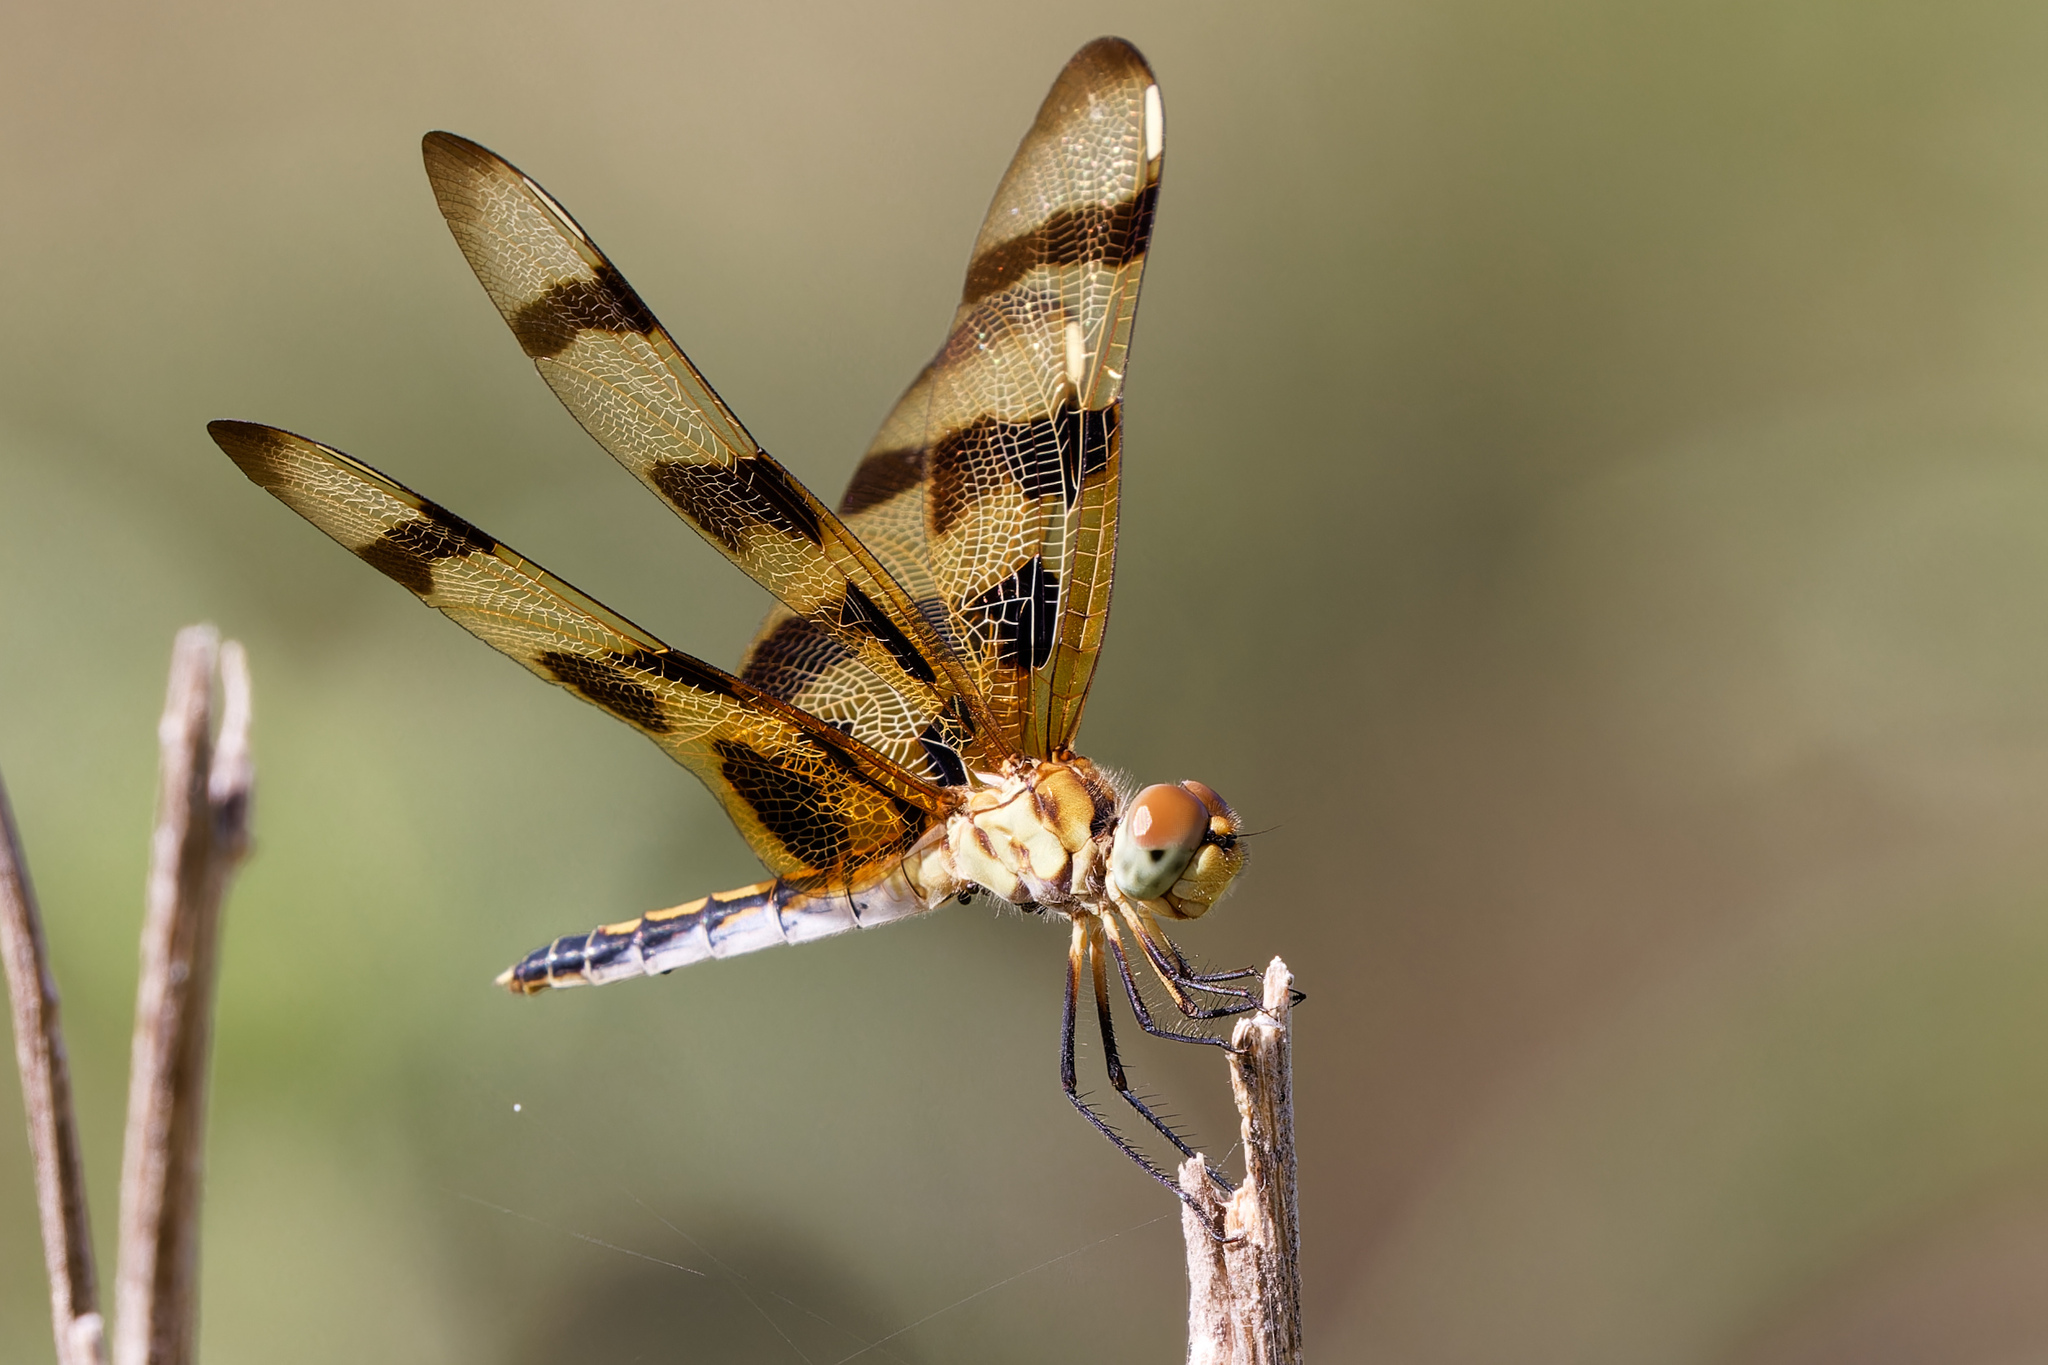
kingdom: Animalia
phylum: Arthropoda
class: Insecta
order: Odonata
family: Libellulidae
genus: Celithemis
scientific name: Celithemis eponina
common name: Halloween pennant
